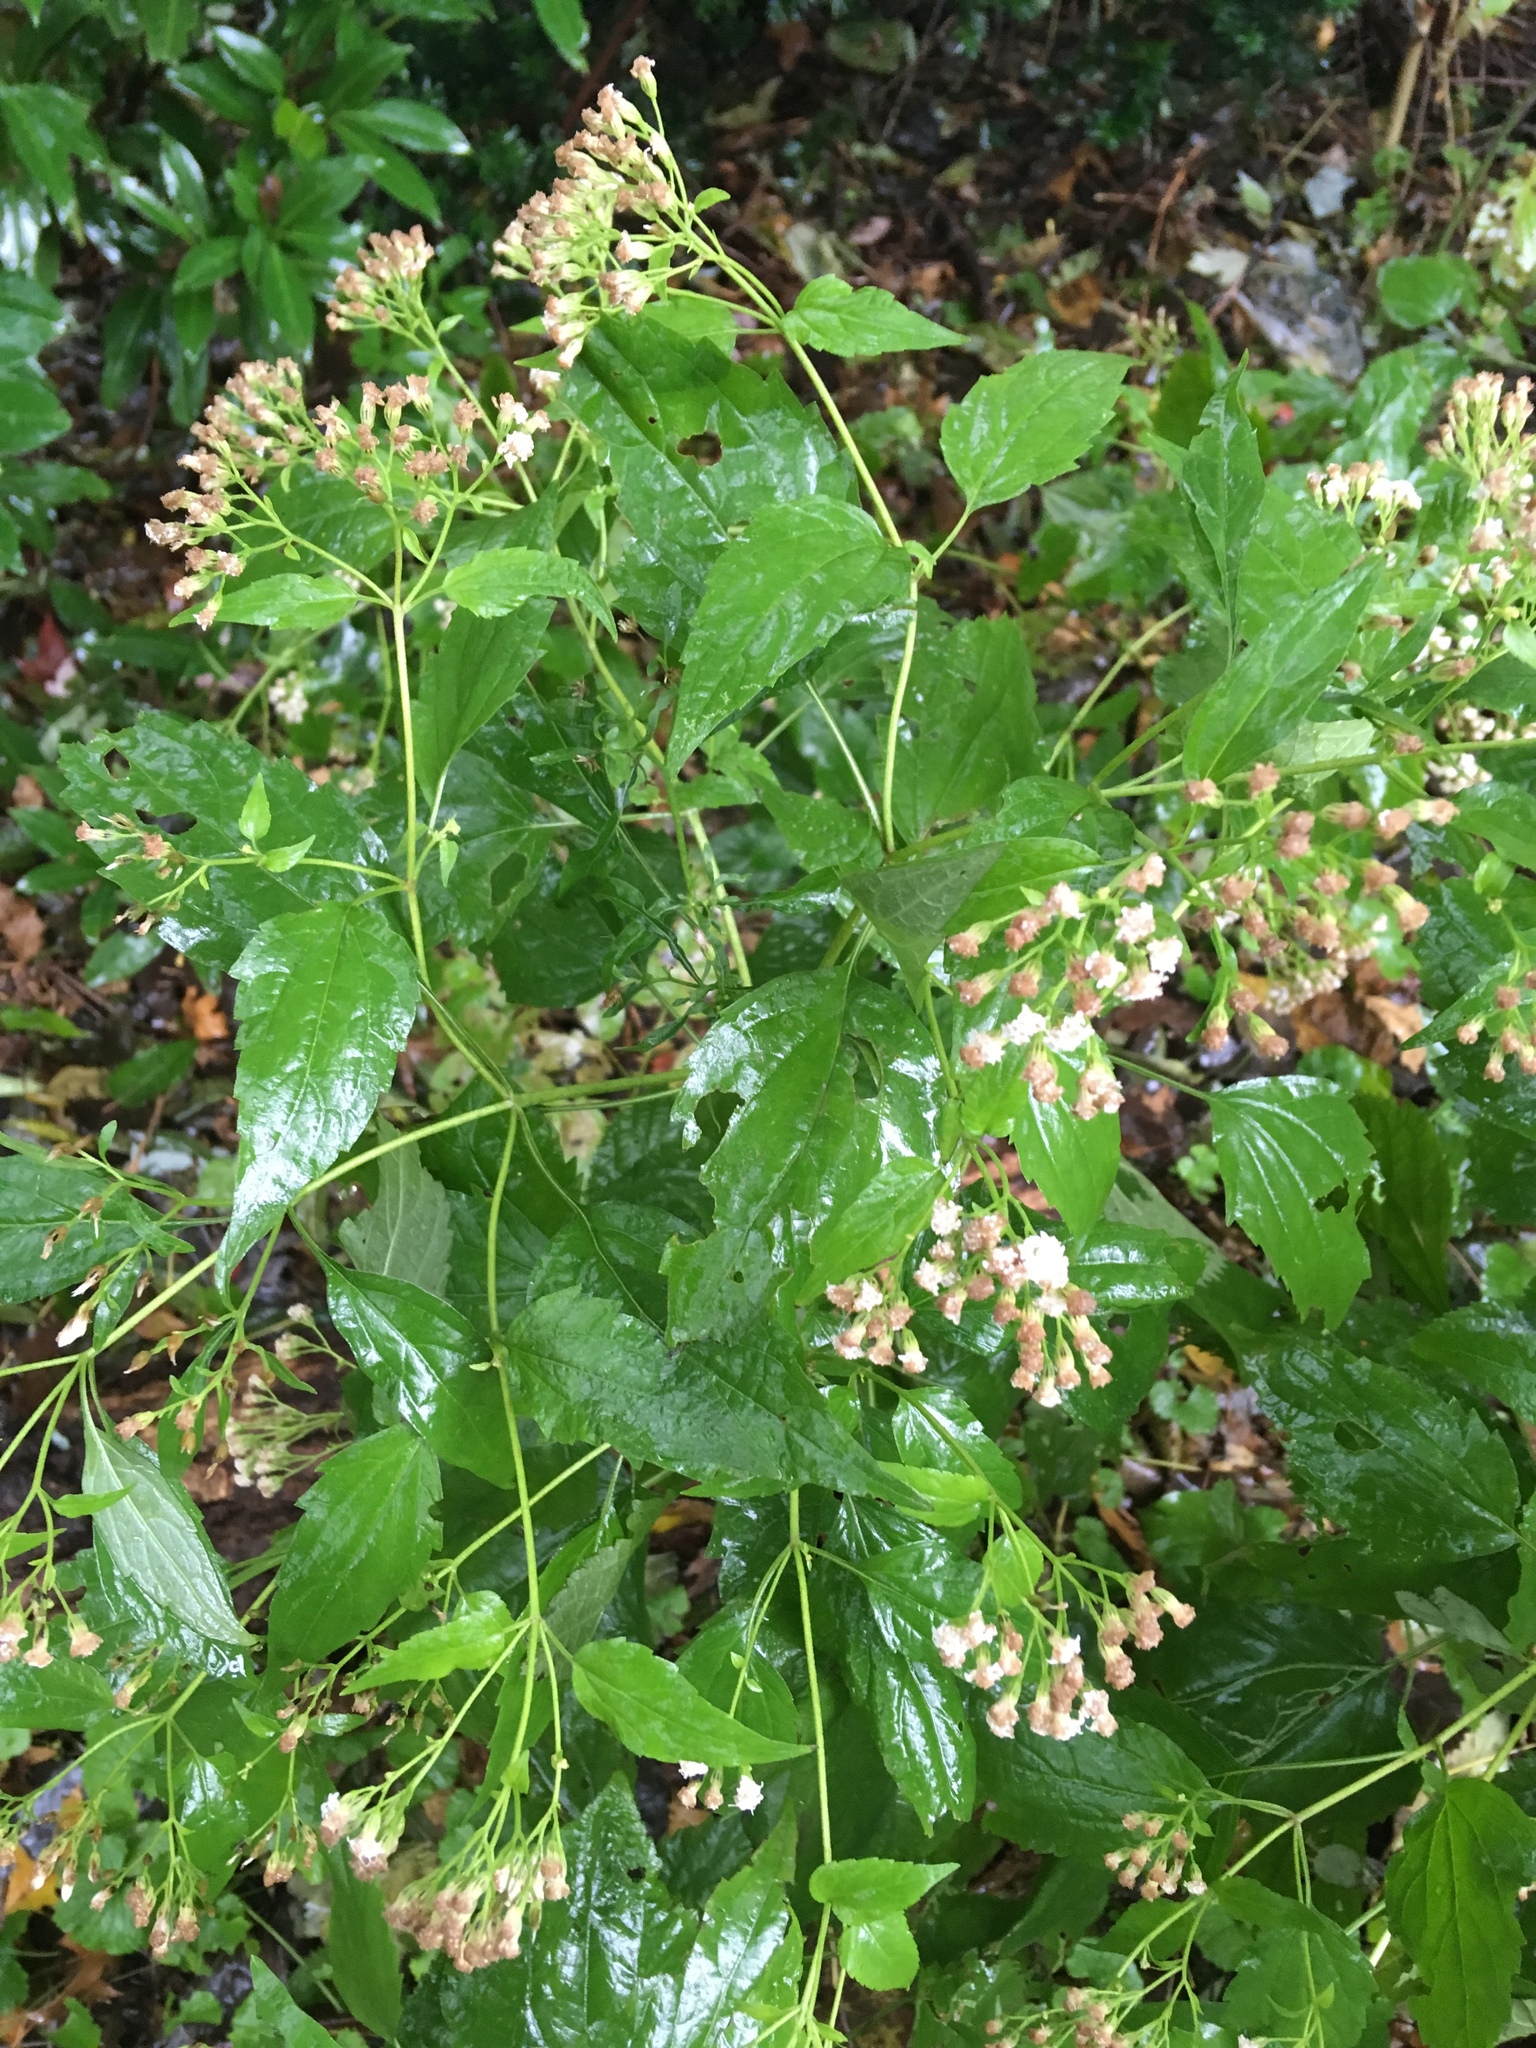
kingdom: Plantae
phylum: Tracheophyta
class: Magnoliopsida
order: Asterales
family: Asteraceae
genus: Ageratina
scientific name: Ageratina altissima
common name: White snakeroot
